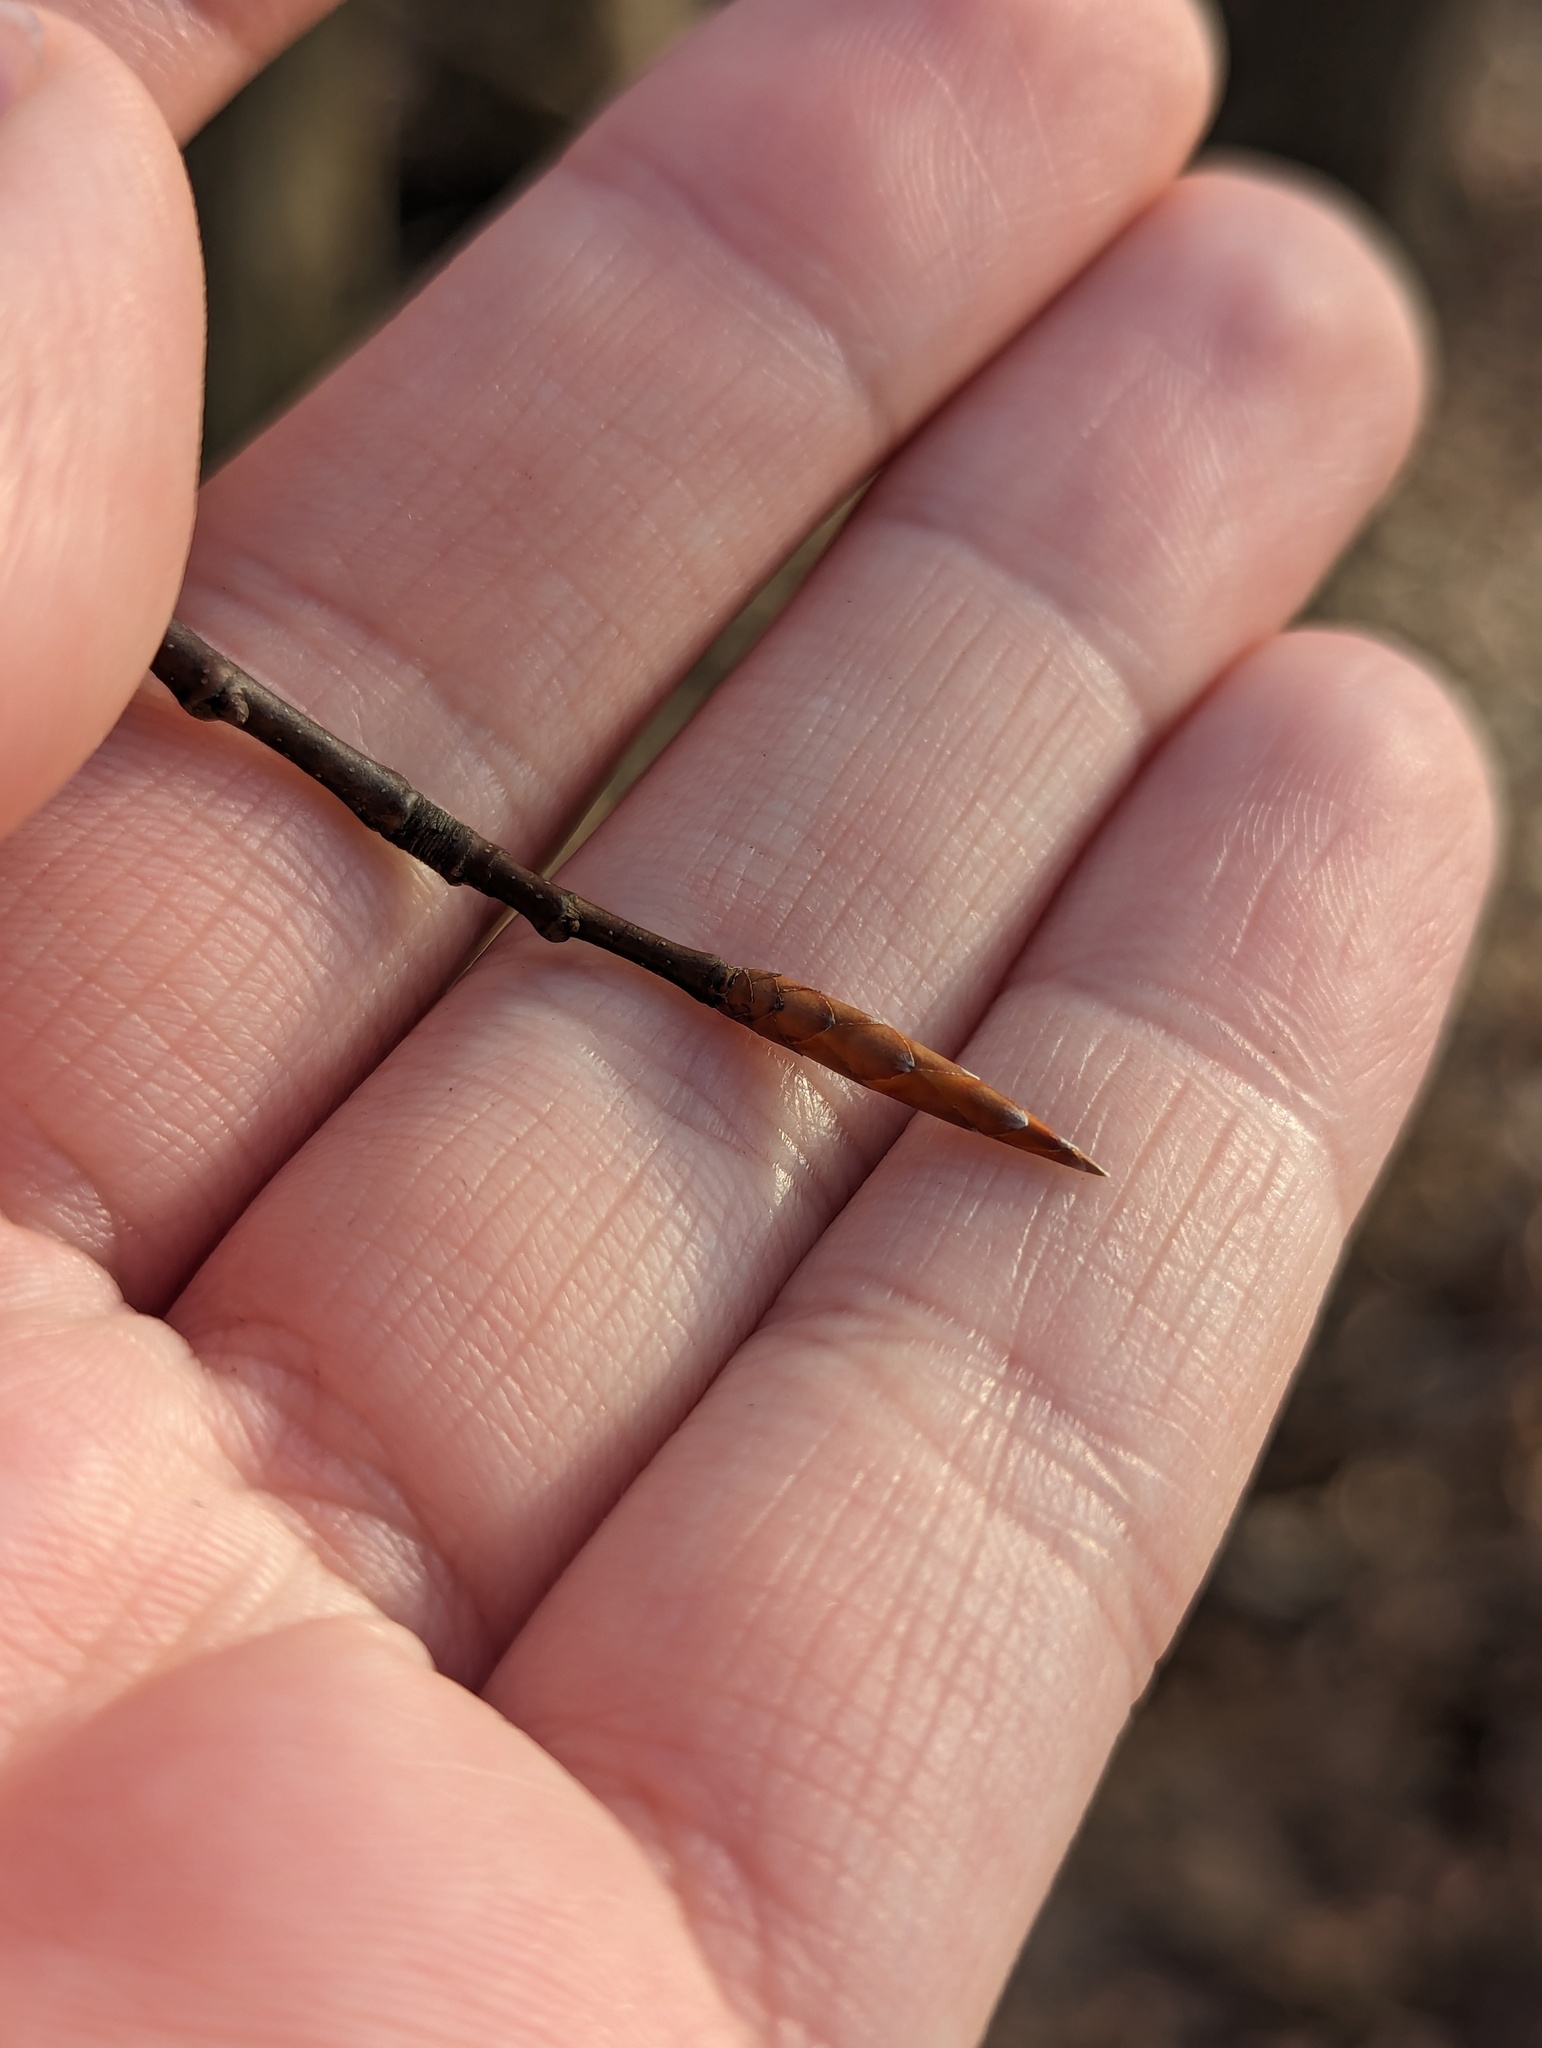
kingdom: Plantae
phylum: Tracheophyta
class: Magnoliopsida
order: Fagales
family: Fagaceae
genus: Fagus
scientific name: Fagus grandifolia
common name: American beech
